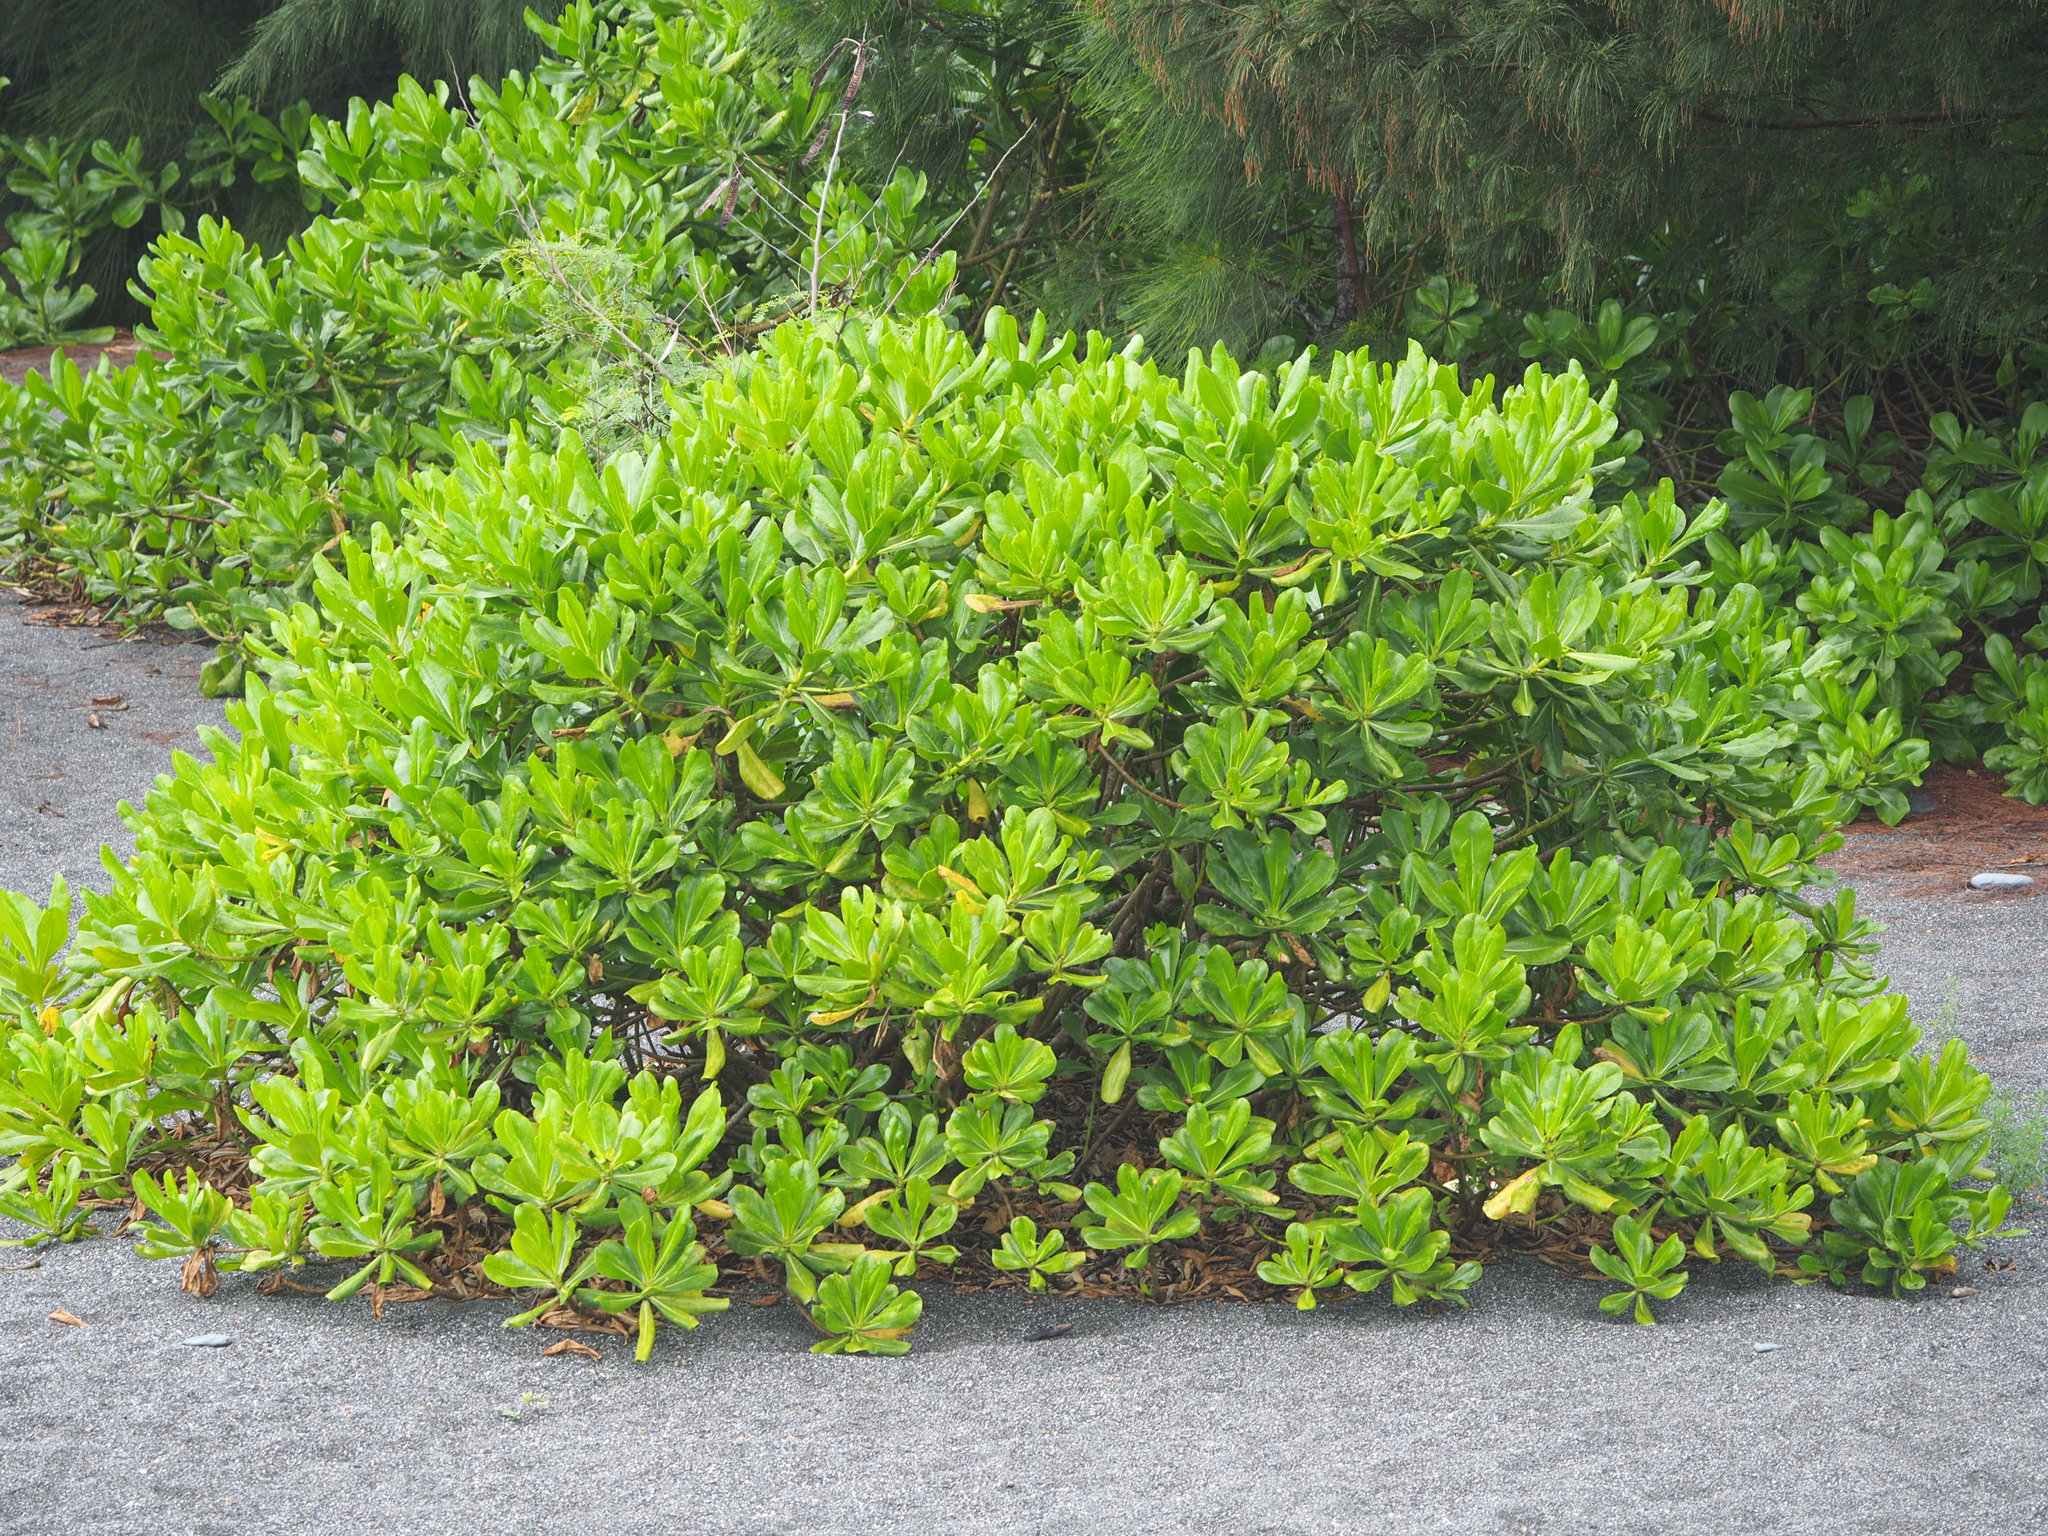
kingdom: Plantae
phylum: Tracheophyta
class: Magnoliopsida
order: Asterales
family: Goodeniaceae
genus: Scaevola
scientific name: Scaevola taccada
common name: Sea lettucetree
